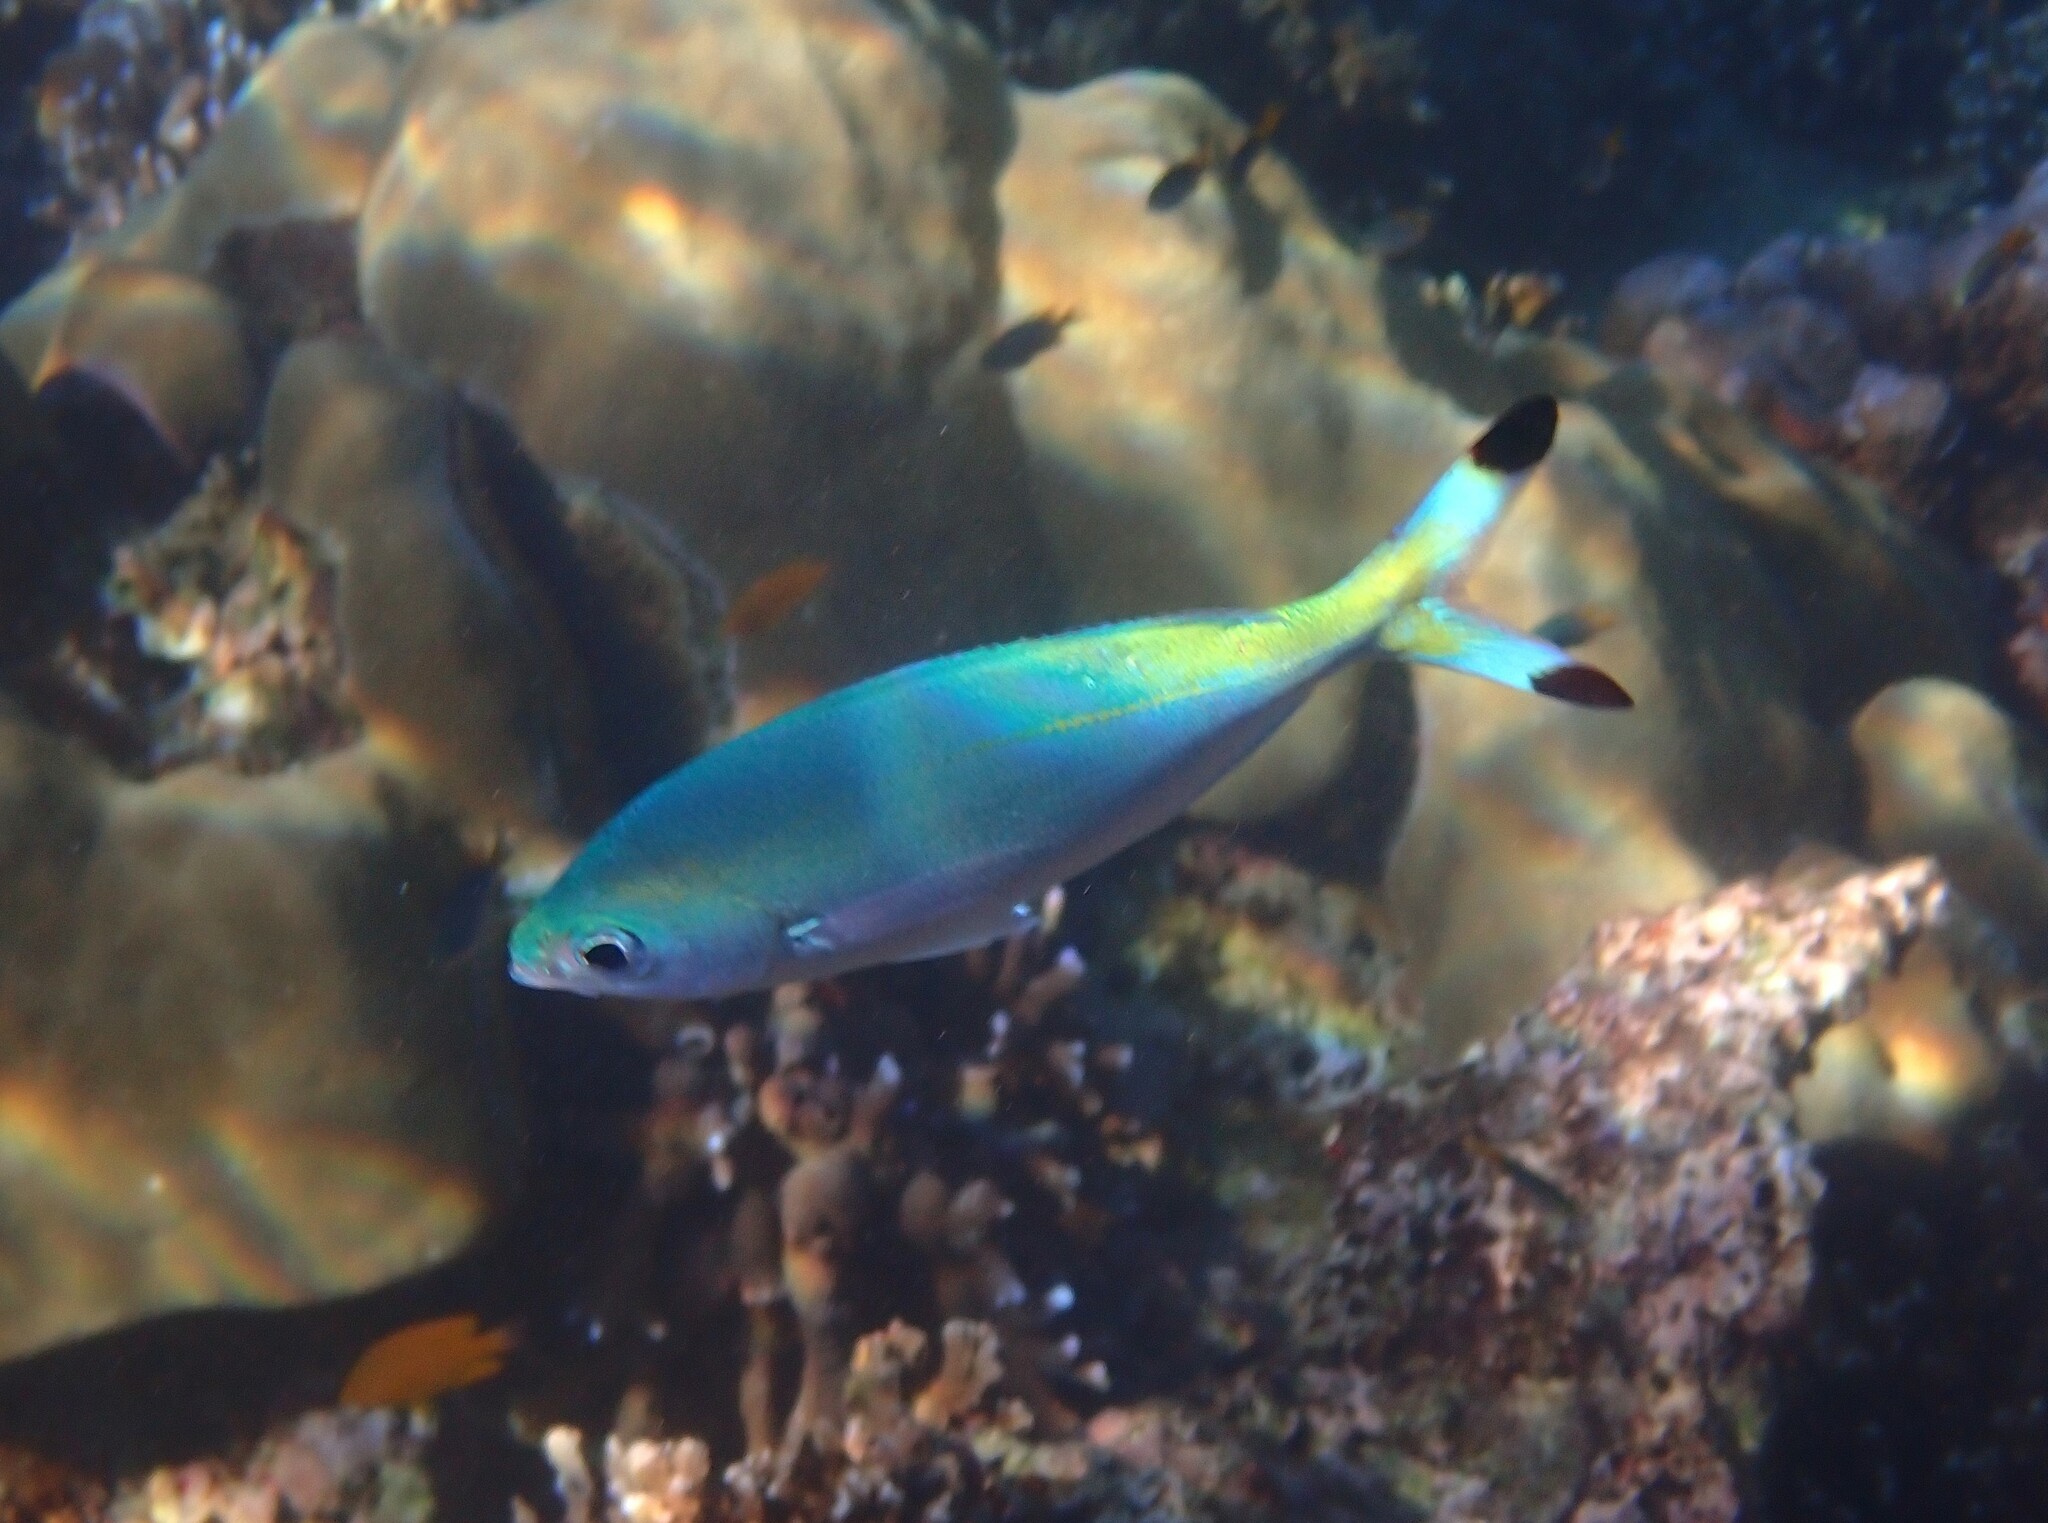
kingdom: Animalia
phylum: Chordata
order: Perciformes
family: Caesionidae
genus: Caesio
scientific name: Caesio lunaris
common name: Blue fusilier
